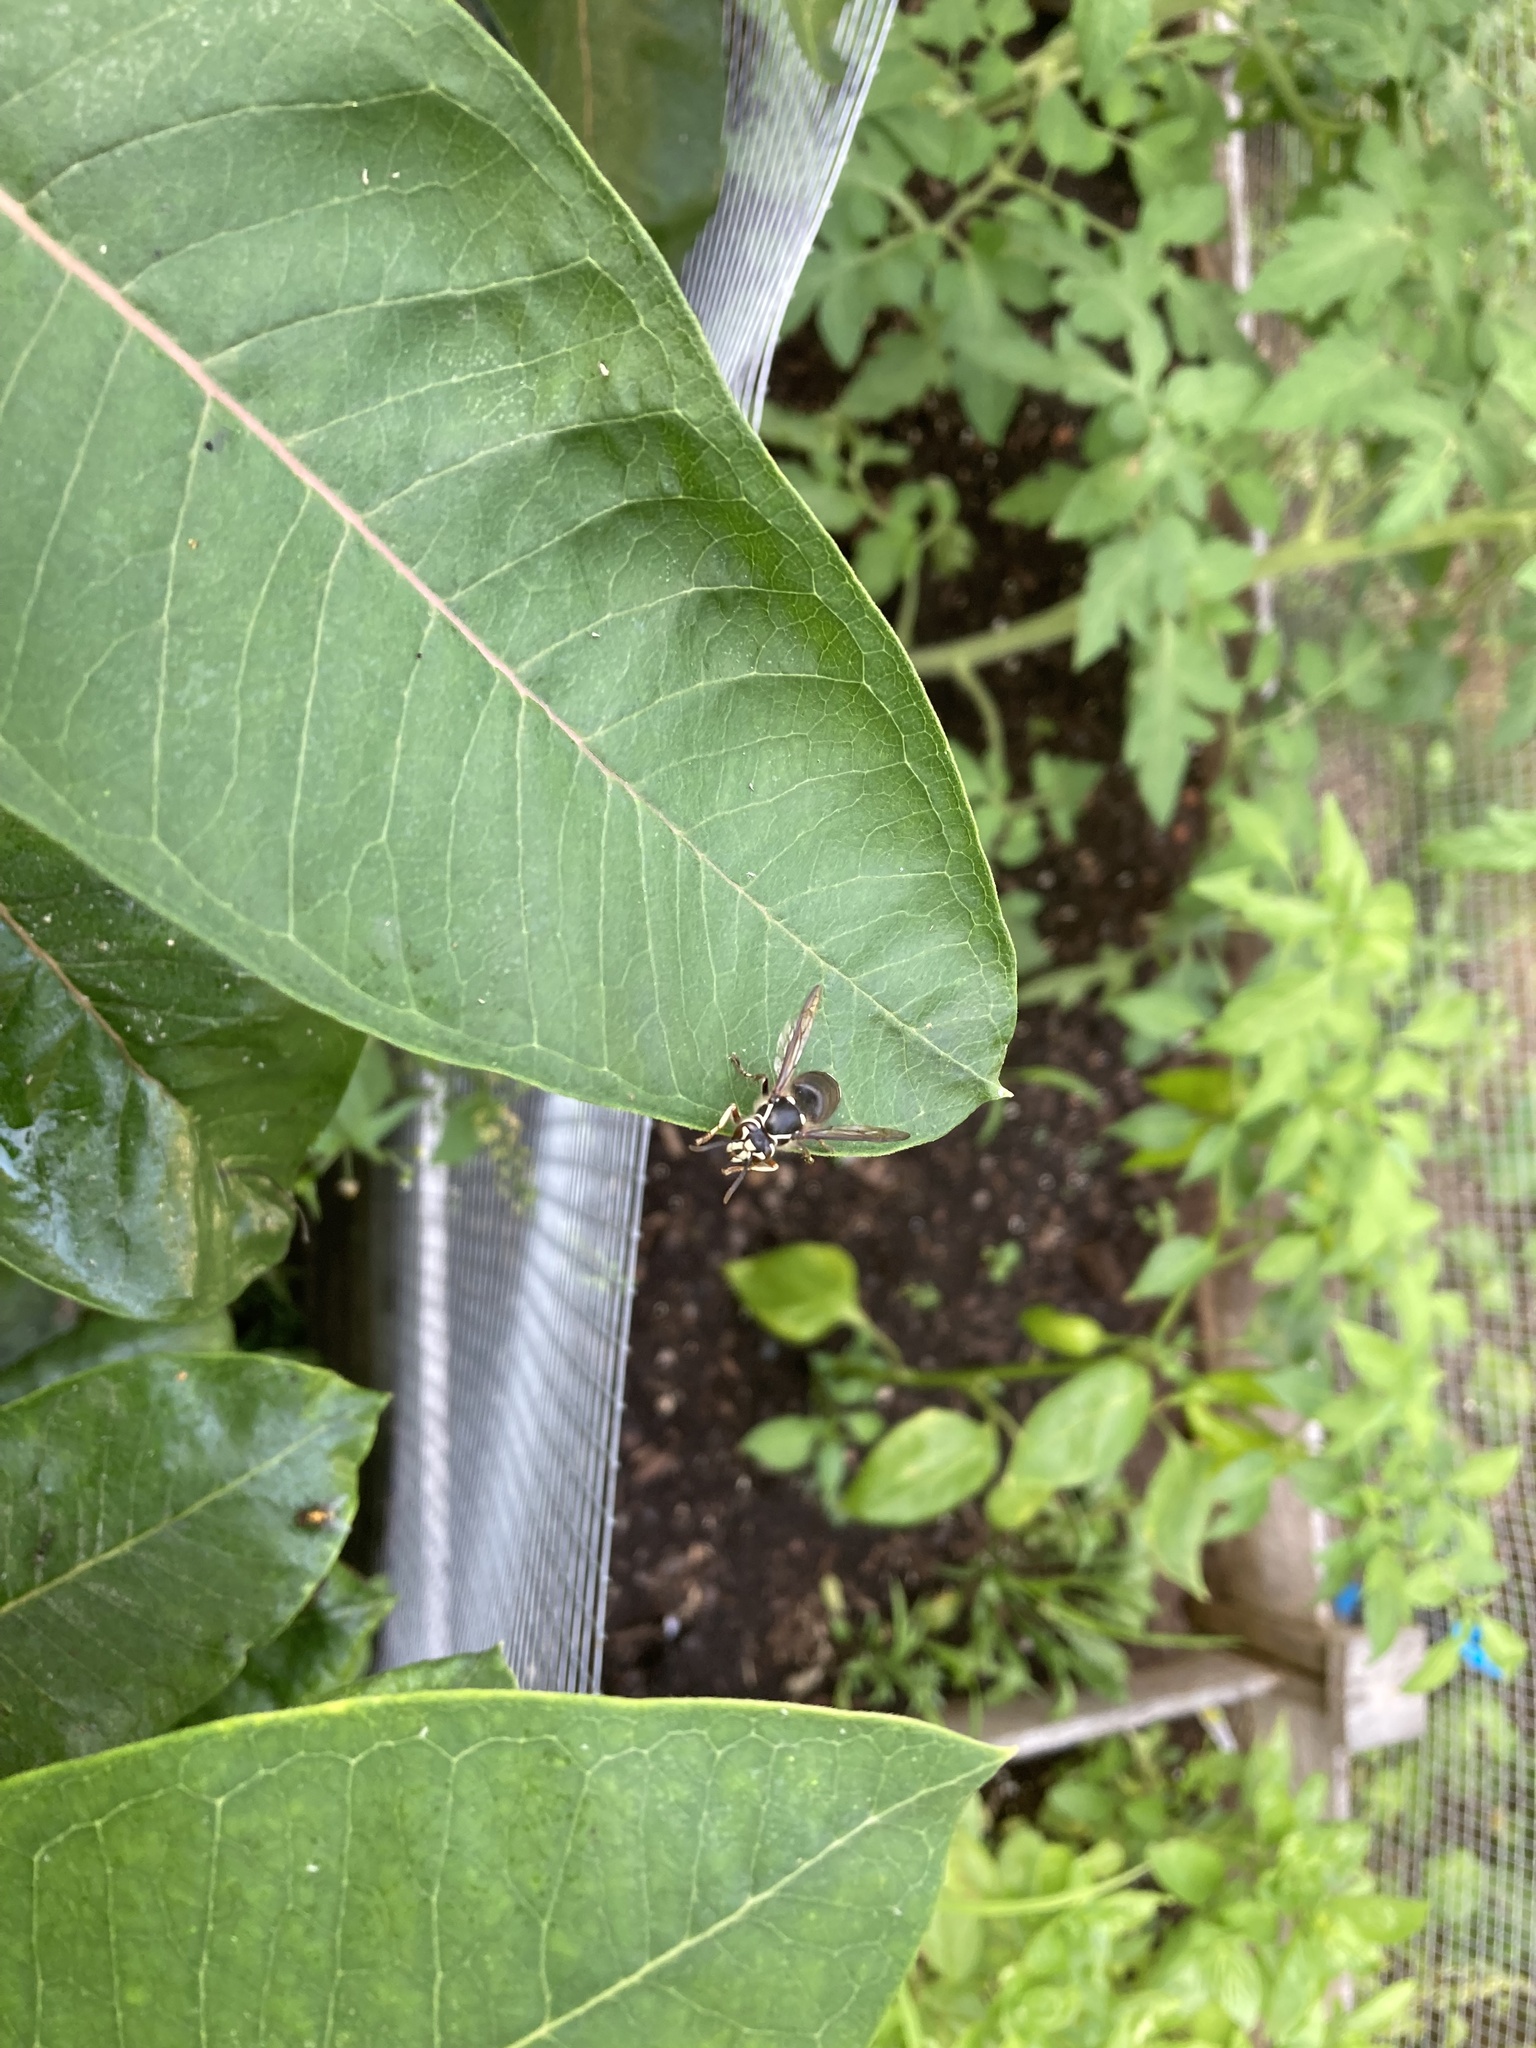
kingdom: Animalia
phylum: Arthropoda
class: Insecta
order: Hymenoptera
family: Vespidae
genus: Dolichovespula
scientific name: Dolichovespula maculata
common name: Bald-faced hornet
